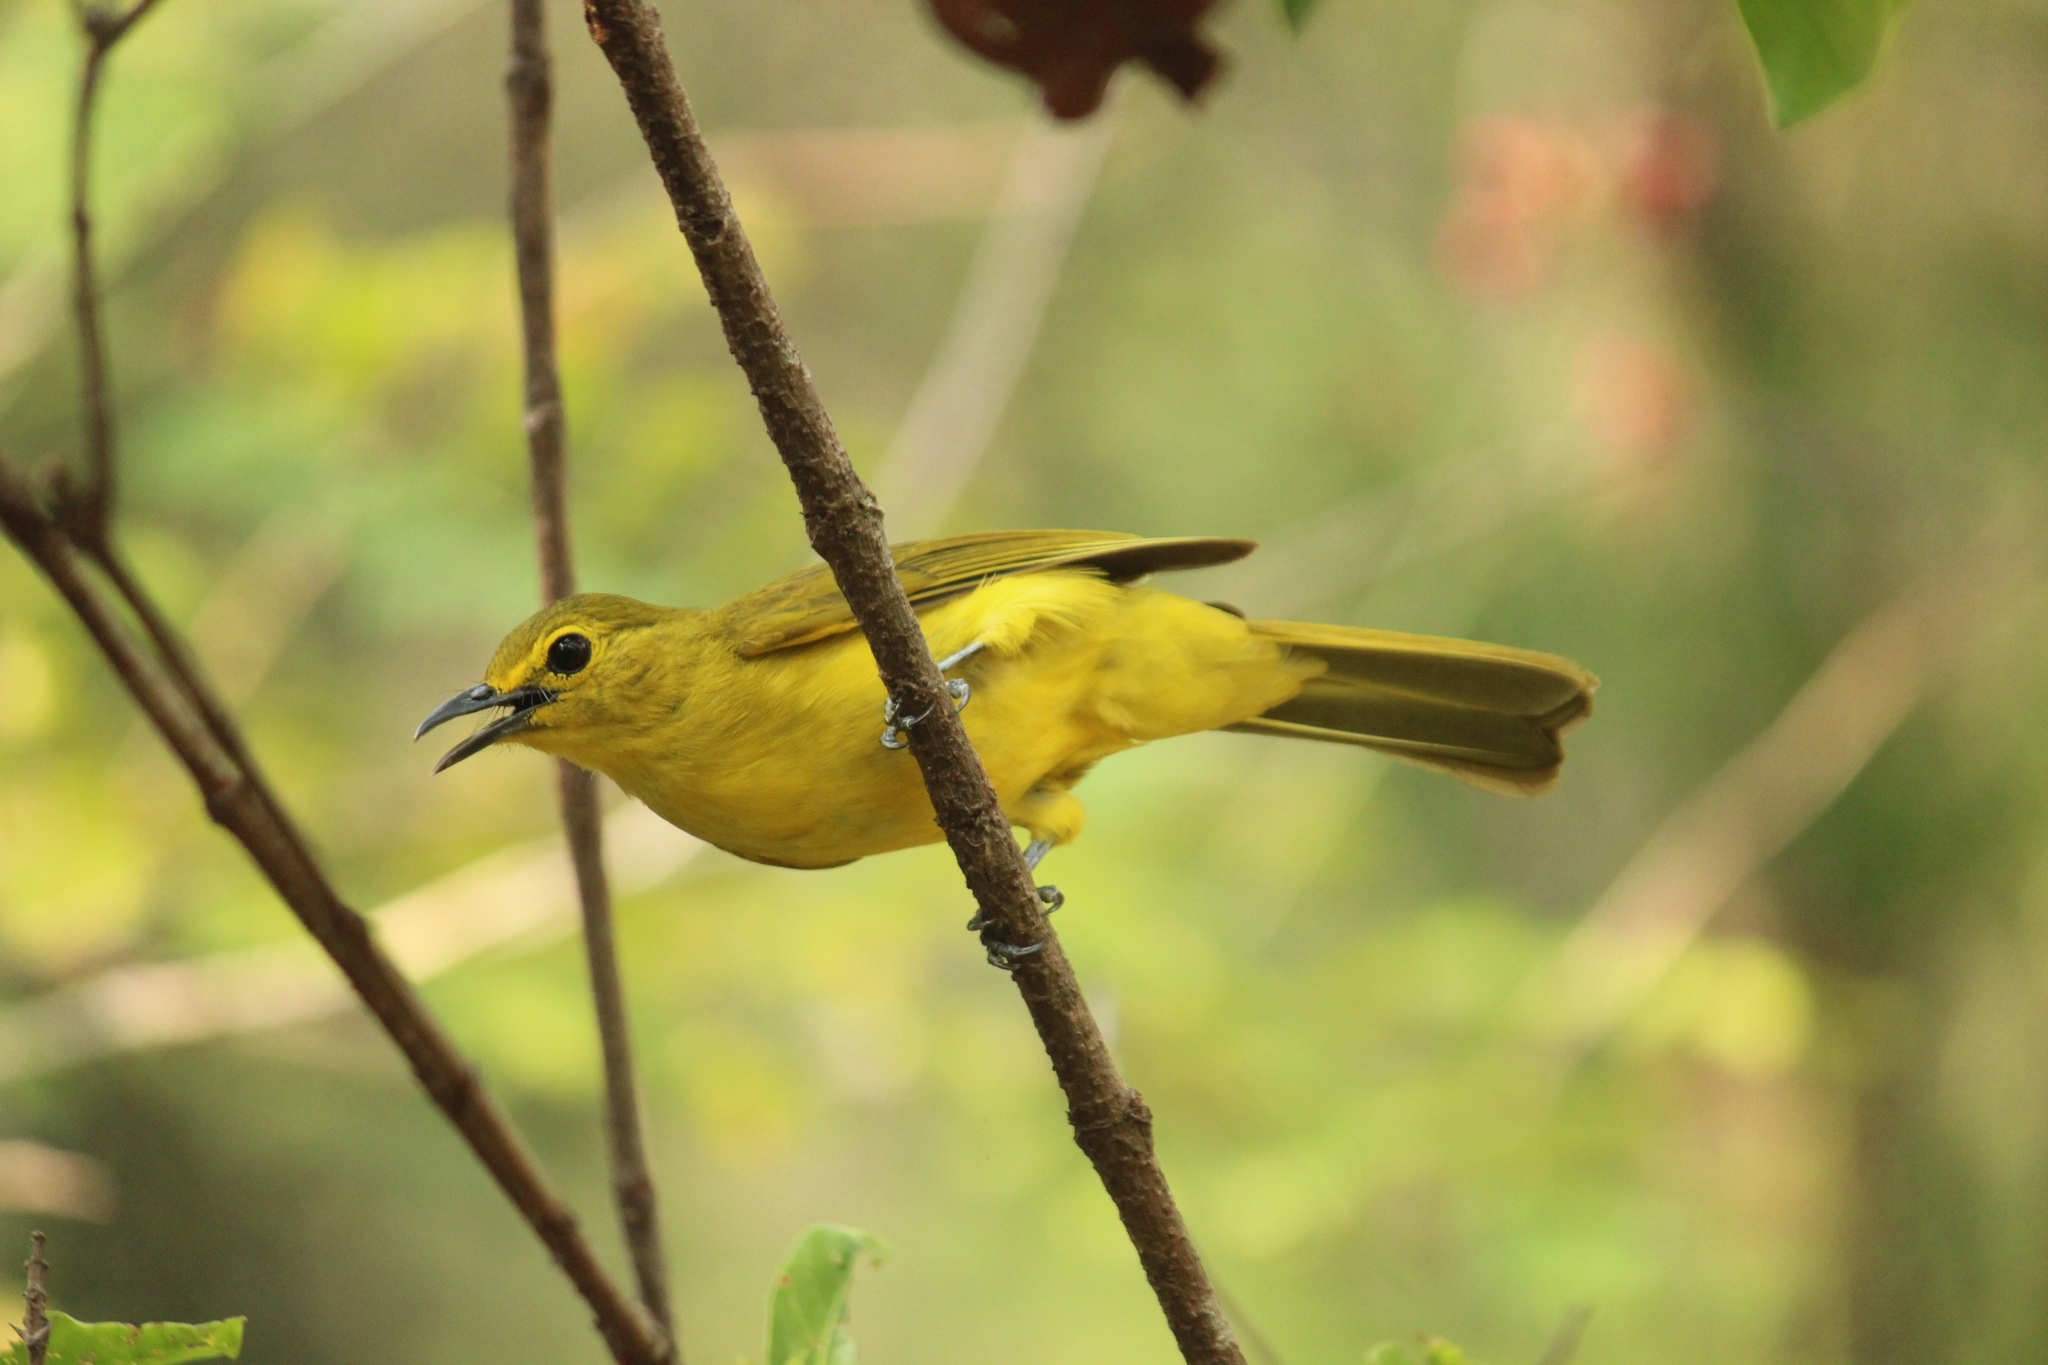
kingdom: Animalia
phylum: Chordata
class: Aves
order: Passeriformes
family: Pycnonotidae
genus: Acritillas
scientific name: Acritillas indica
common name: Yellow-browed bulbul
